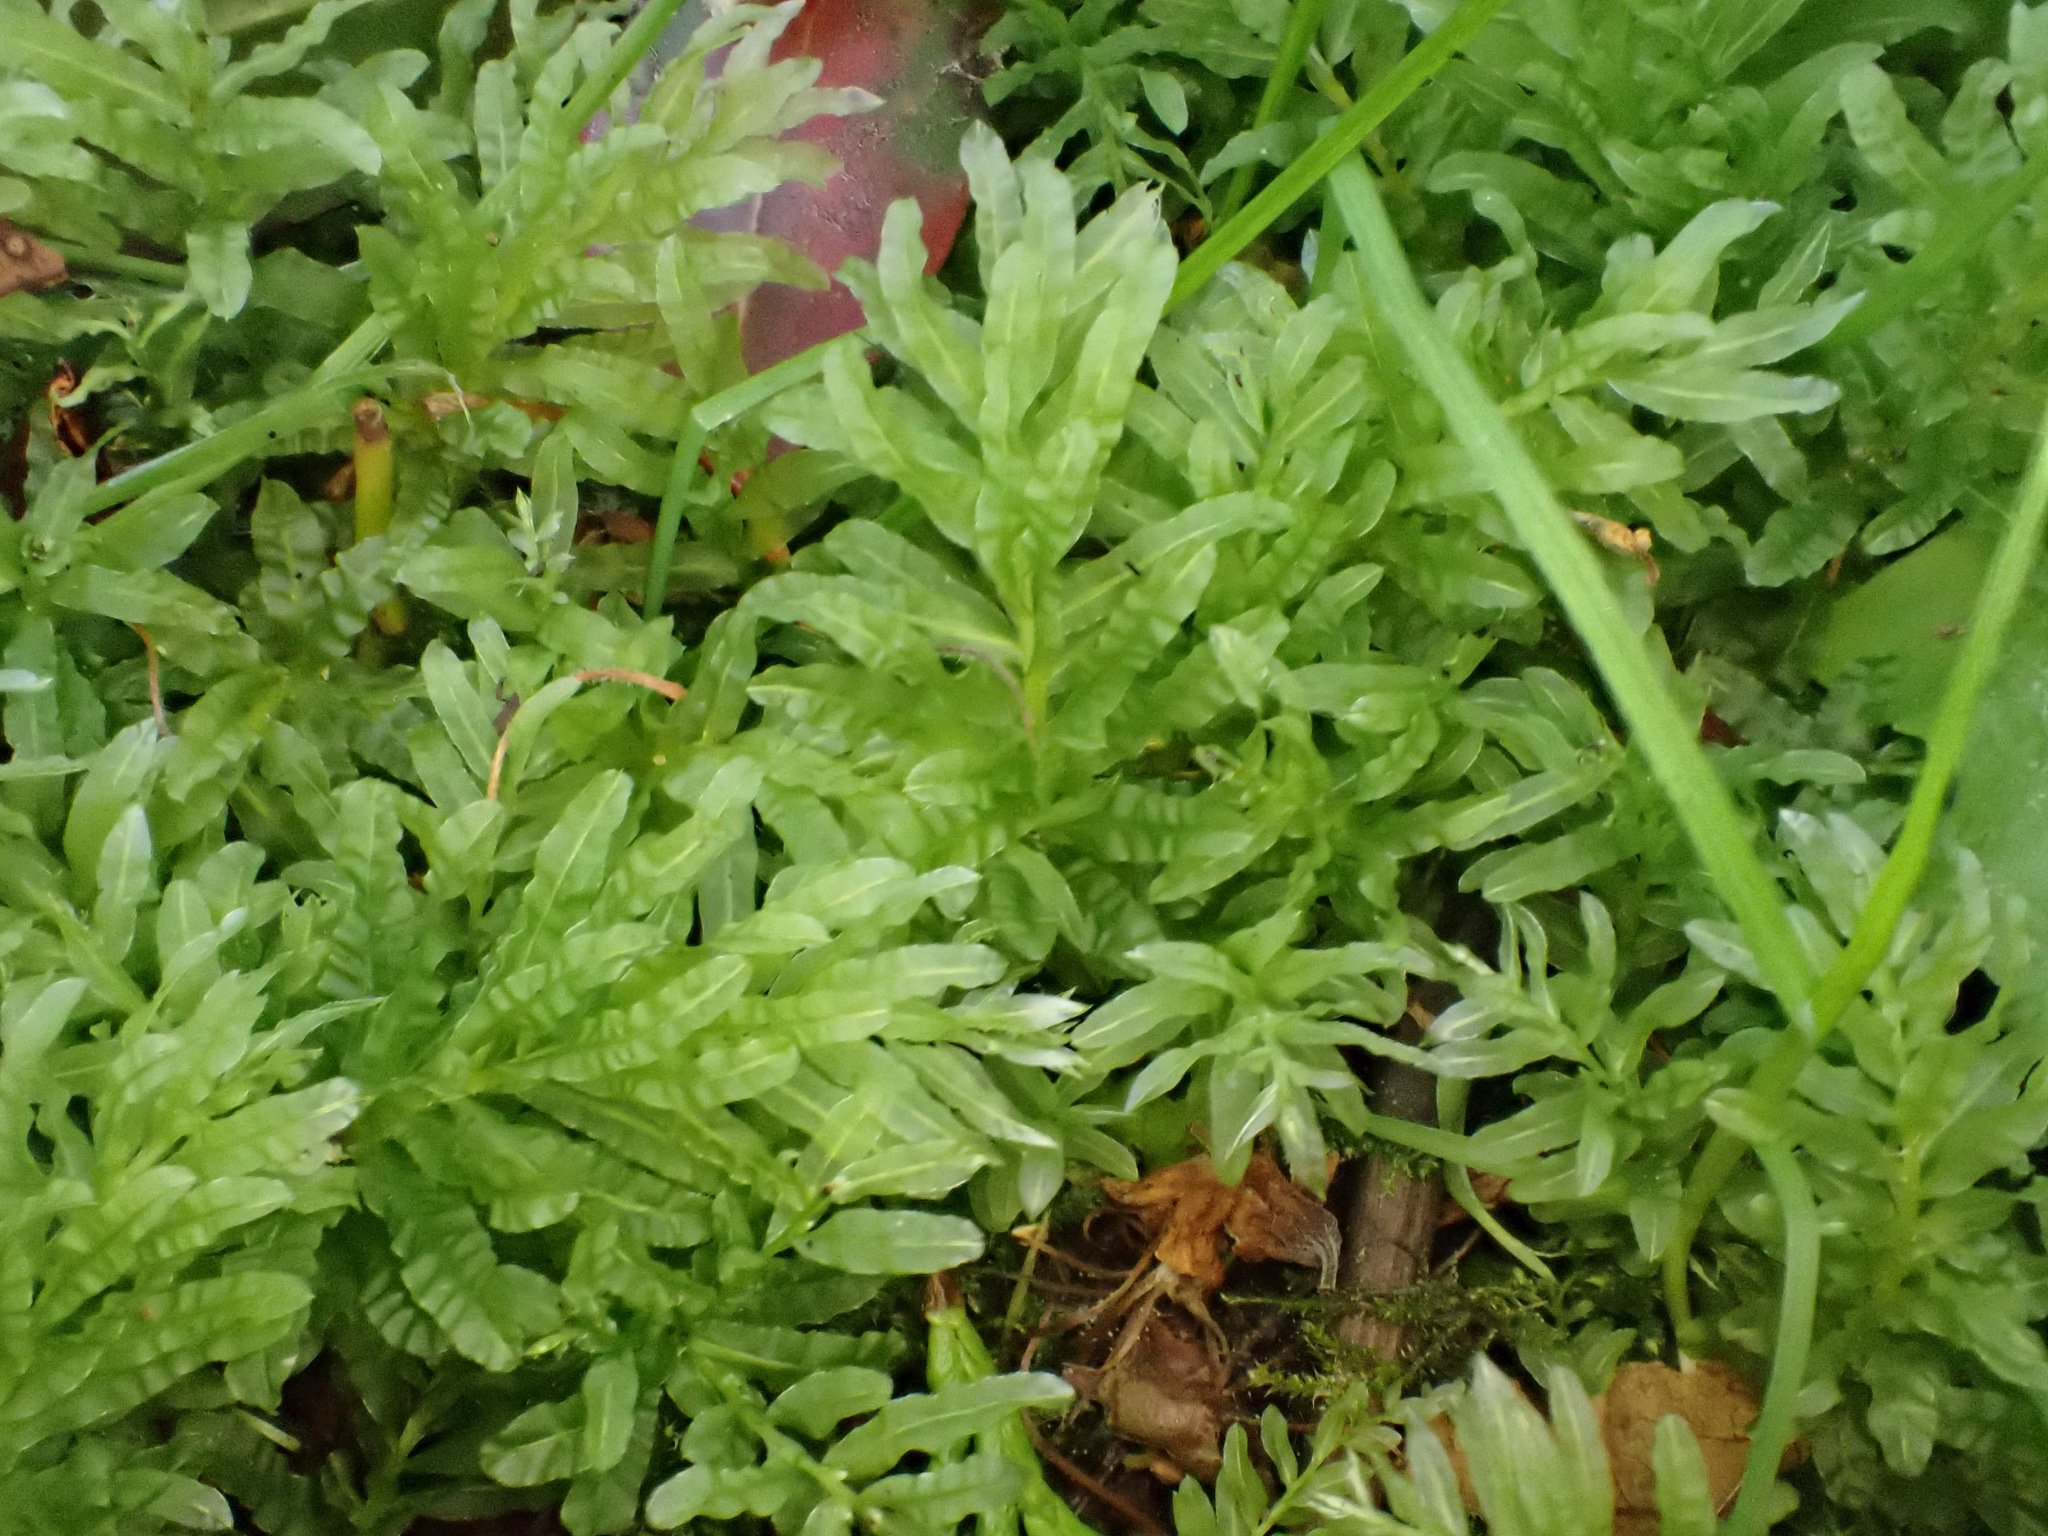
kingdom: Plantae
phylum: Bryophyta
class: Bryopsida
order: Bryales
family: Mniaceae
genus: Plagiomnium
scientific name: Plagiomnium undulatum
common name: Hart's-tongue thyme-moss
